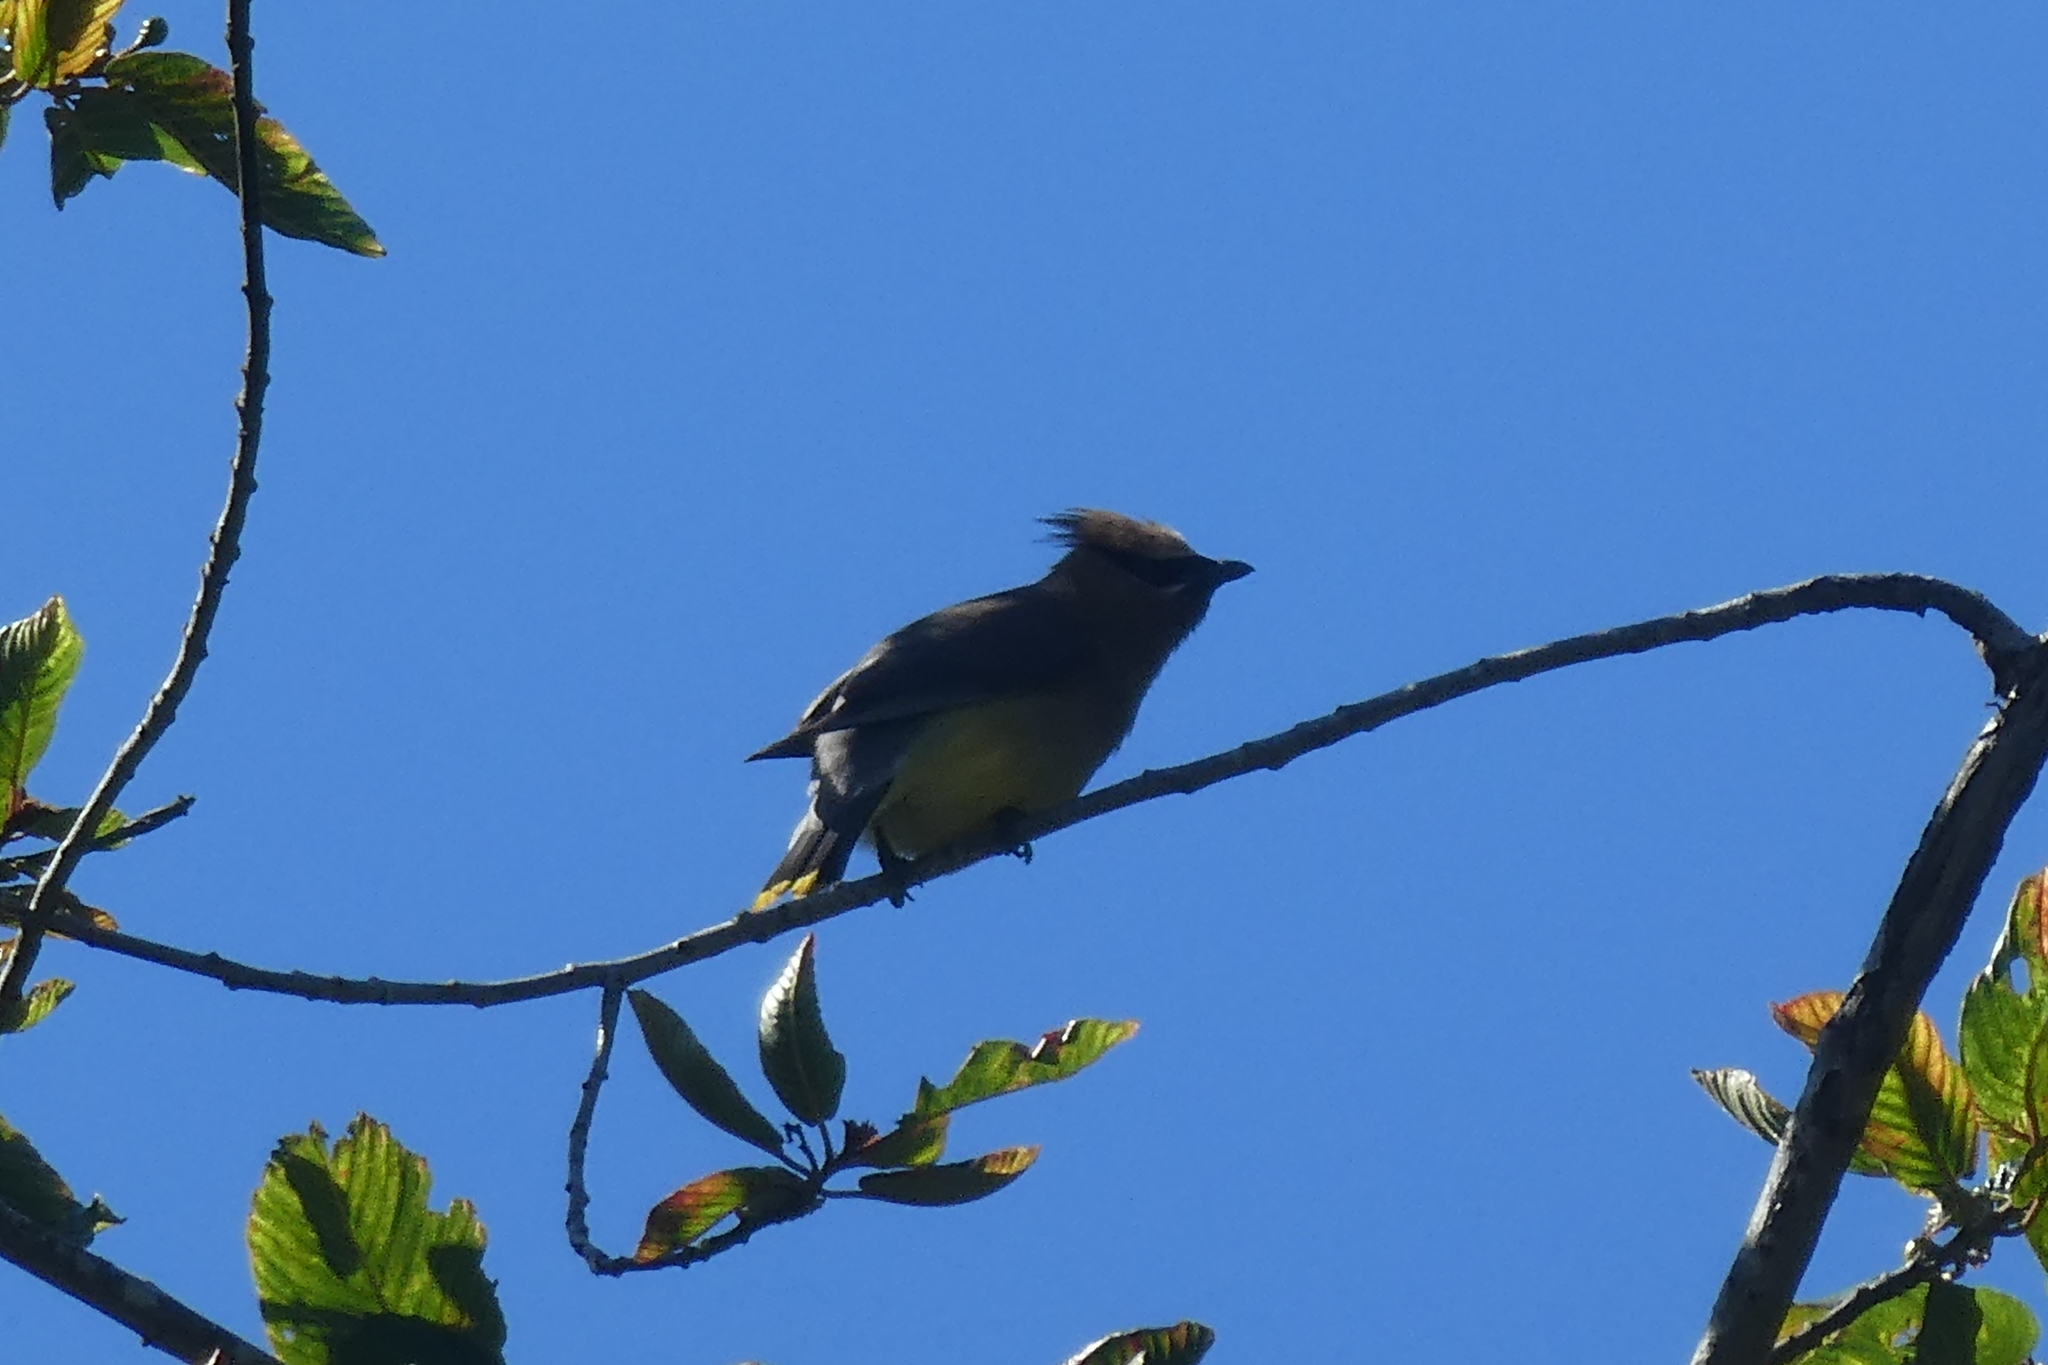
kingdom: Animalia
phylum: Chordata
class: Aves
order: Passeriformes
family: Bombycillidae
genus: Bombycilla
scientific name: Bombycilla cedrorum
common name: Cedar waxwing
